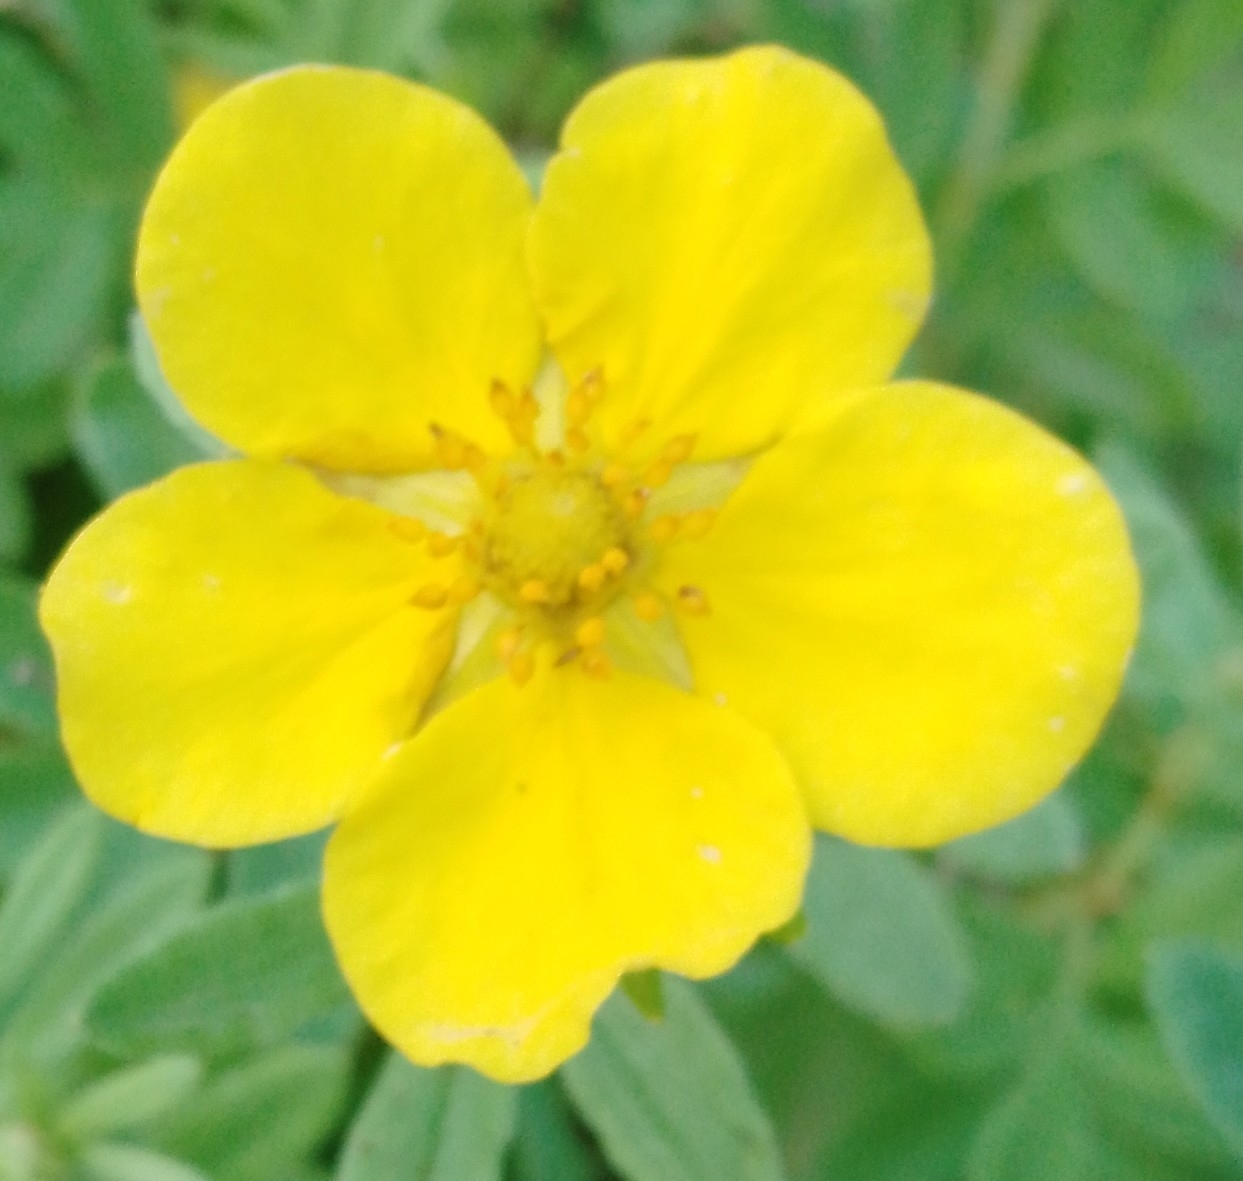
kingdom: Plantae
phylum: Tracheophyta
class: Magnoliopsida
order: Rosales
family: Rosaceae
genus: Dasiphora
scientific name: Dasiphora fruticosa
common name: Shrubby cinquefoil
